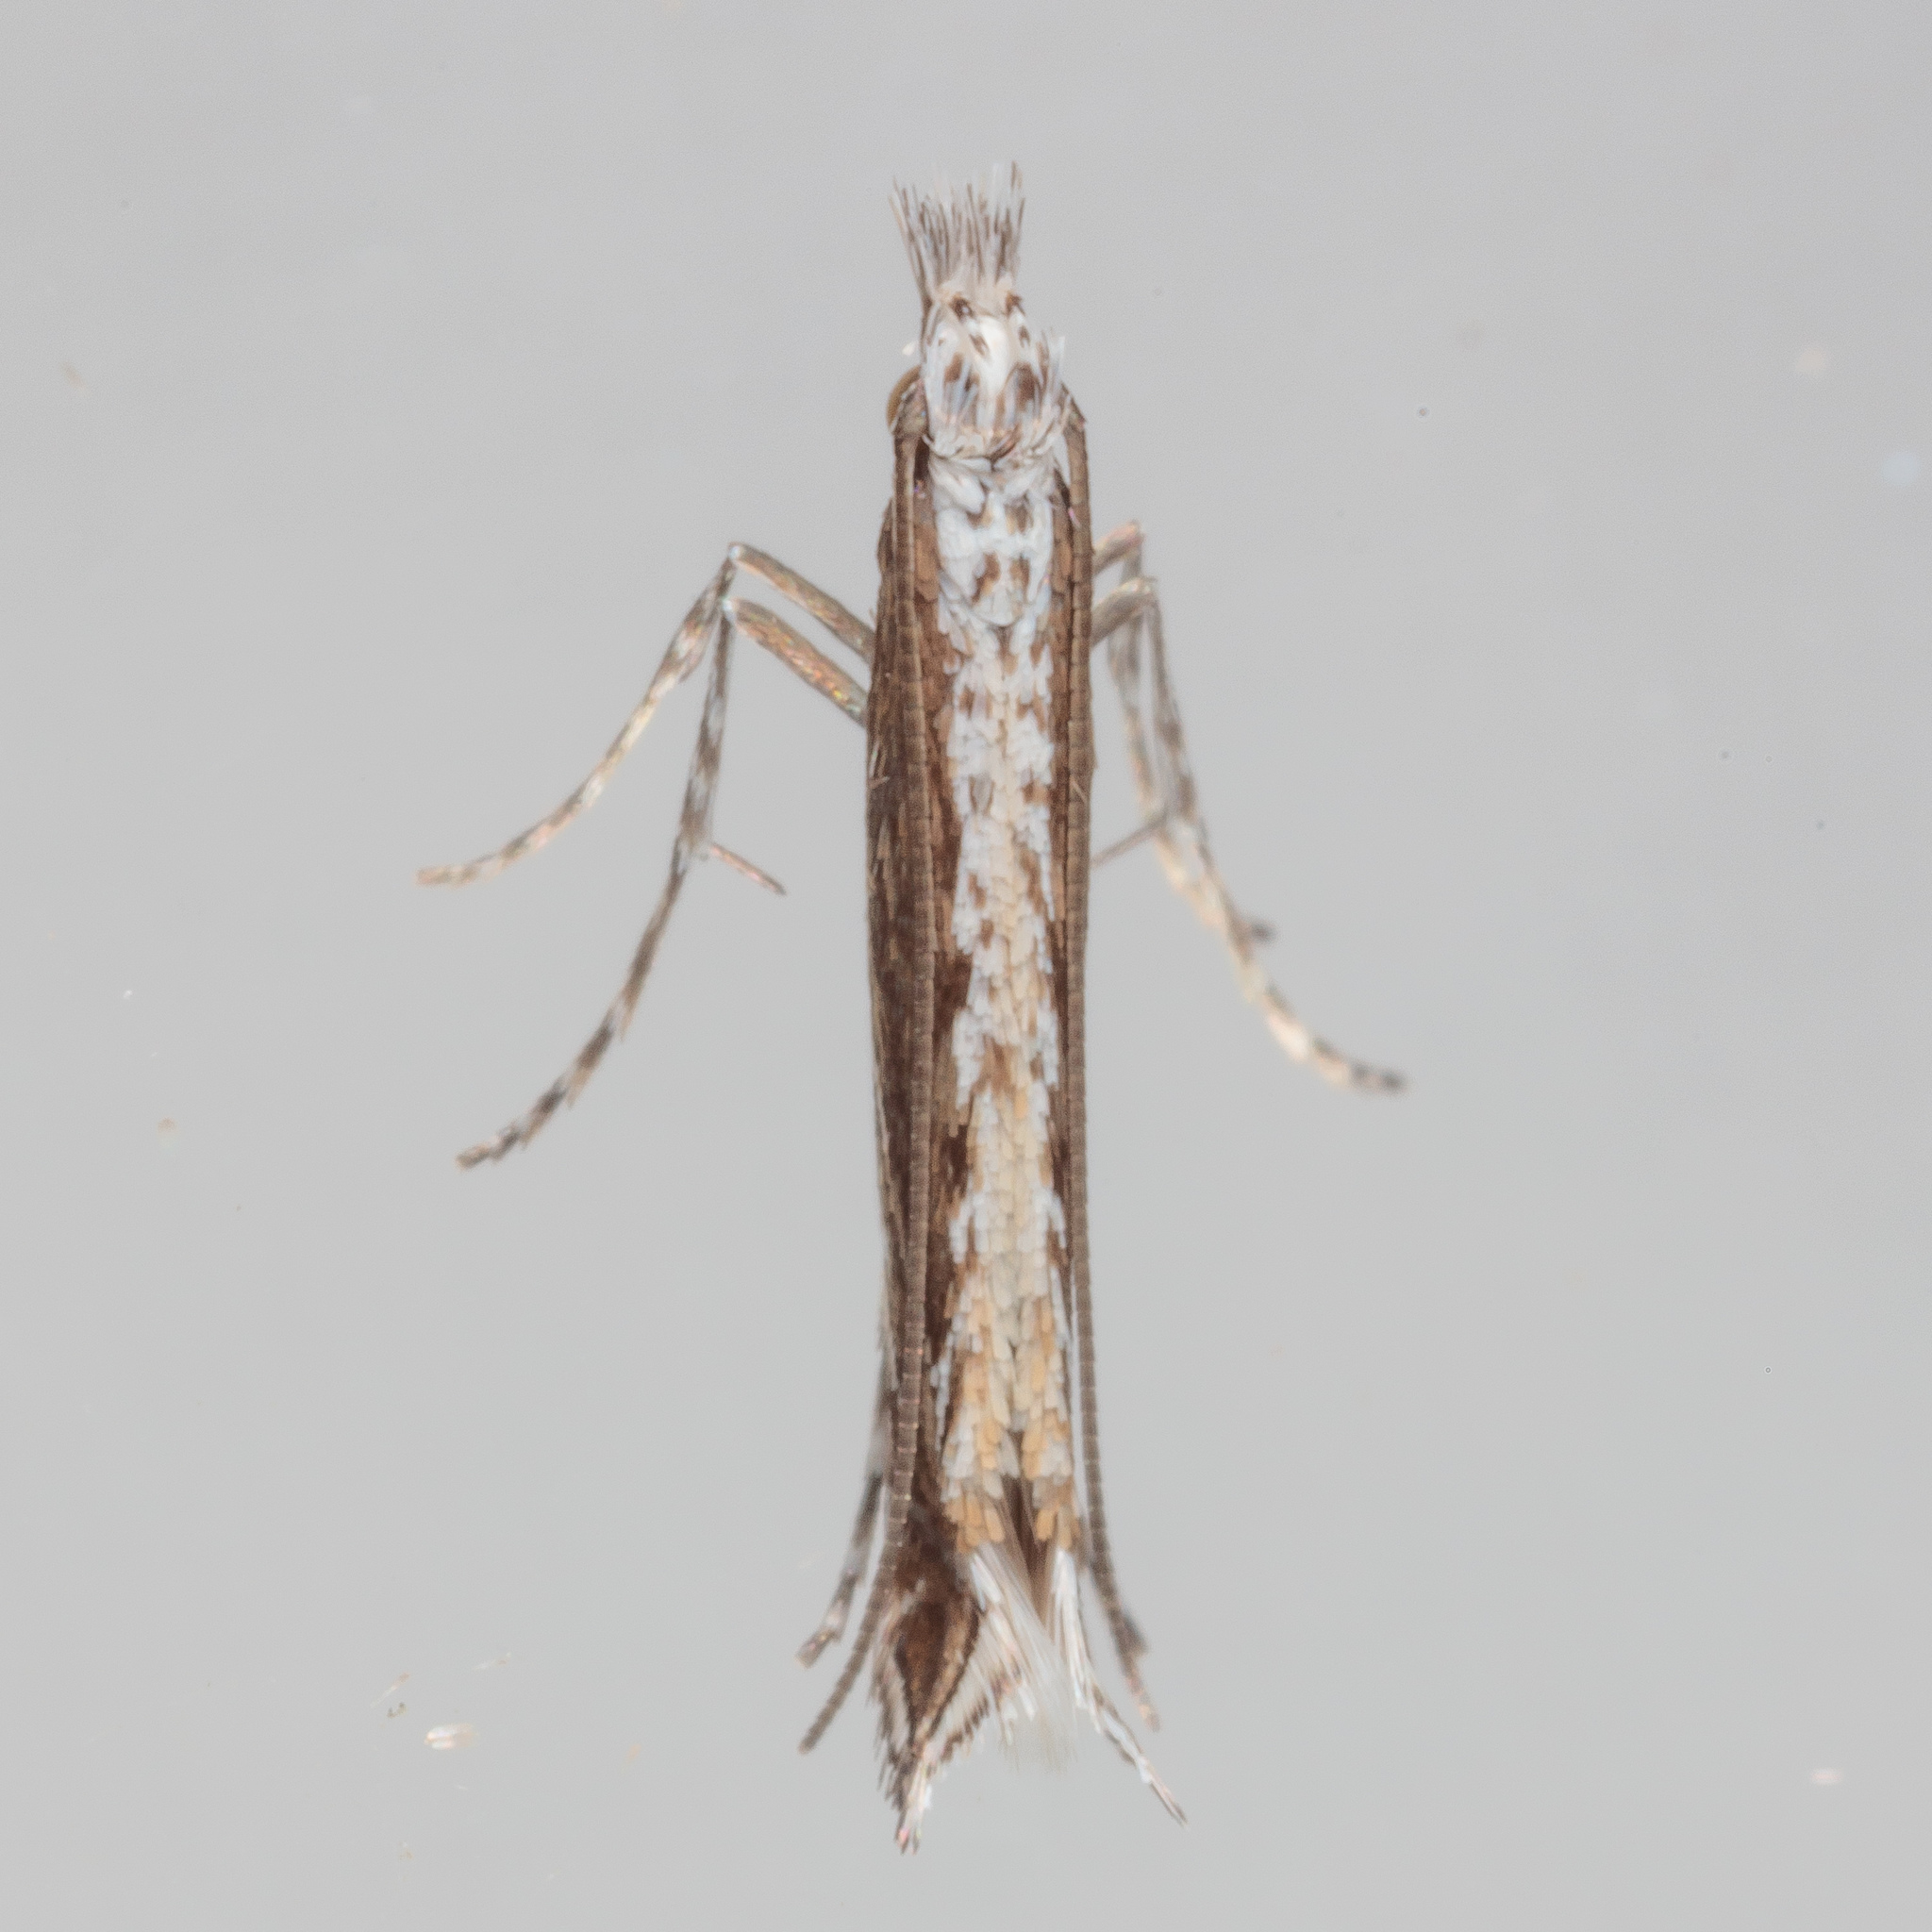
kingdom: Plantae
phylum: Rhodophyta
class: Florideophyceae
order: Gracilariales
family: Gracilariaceae
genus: Gracilaria
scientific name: Gracilaria
